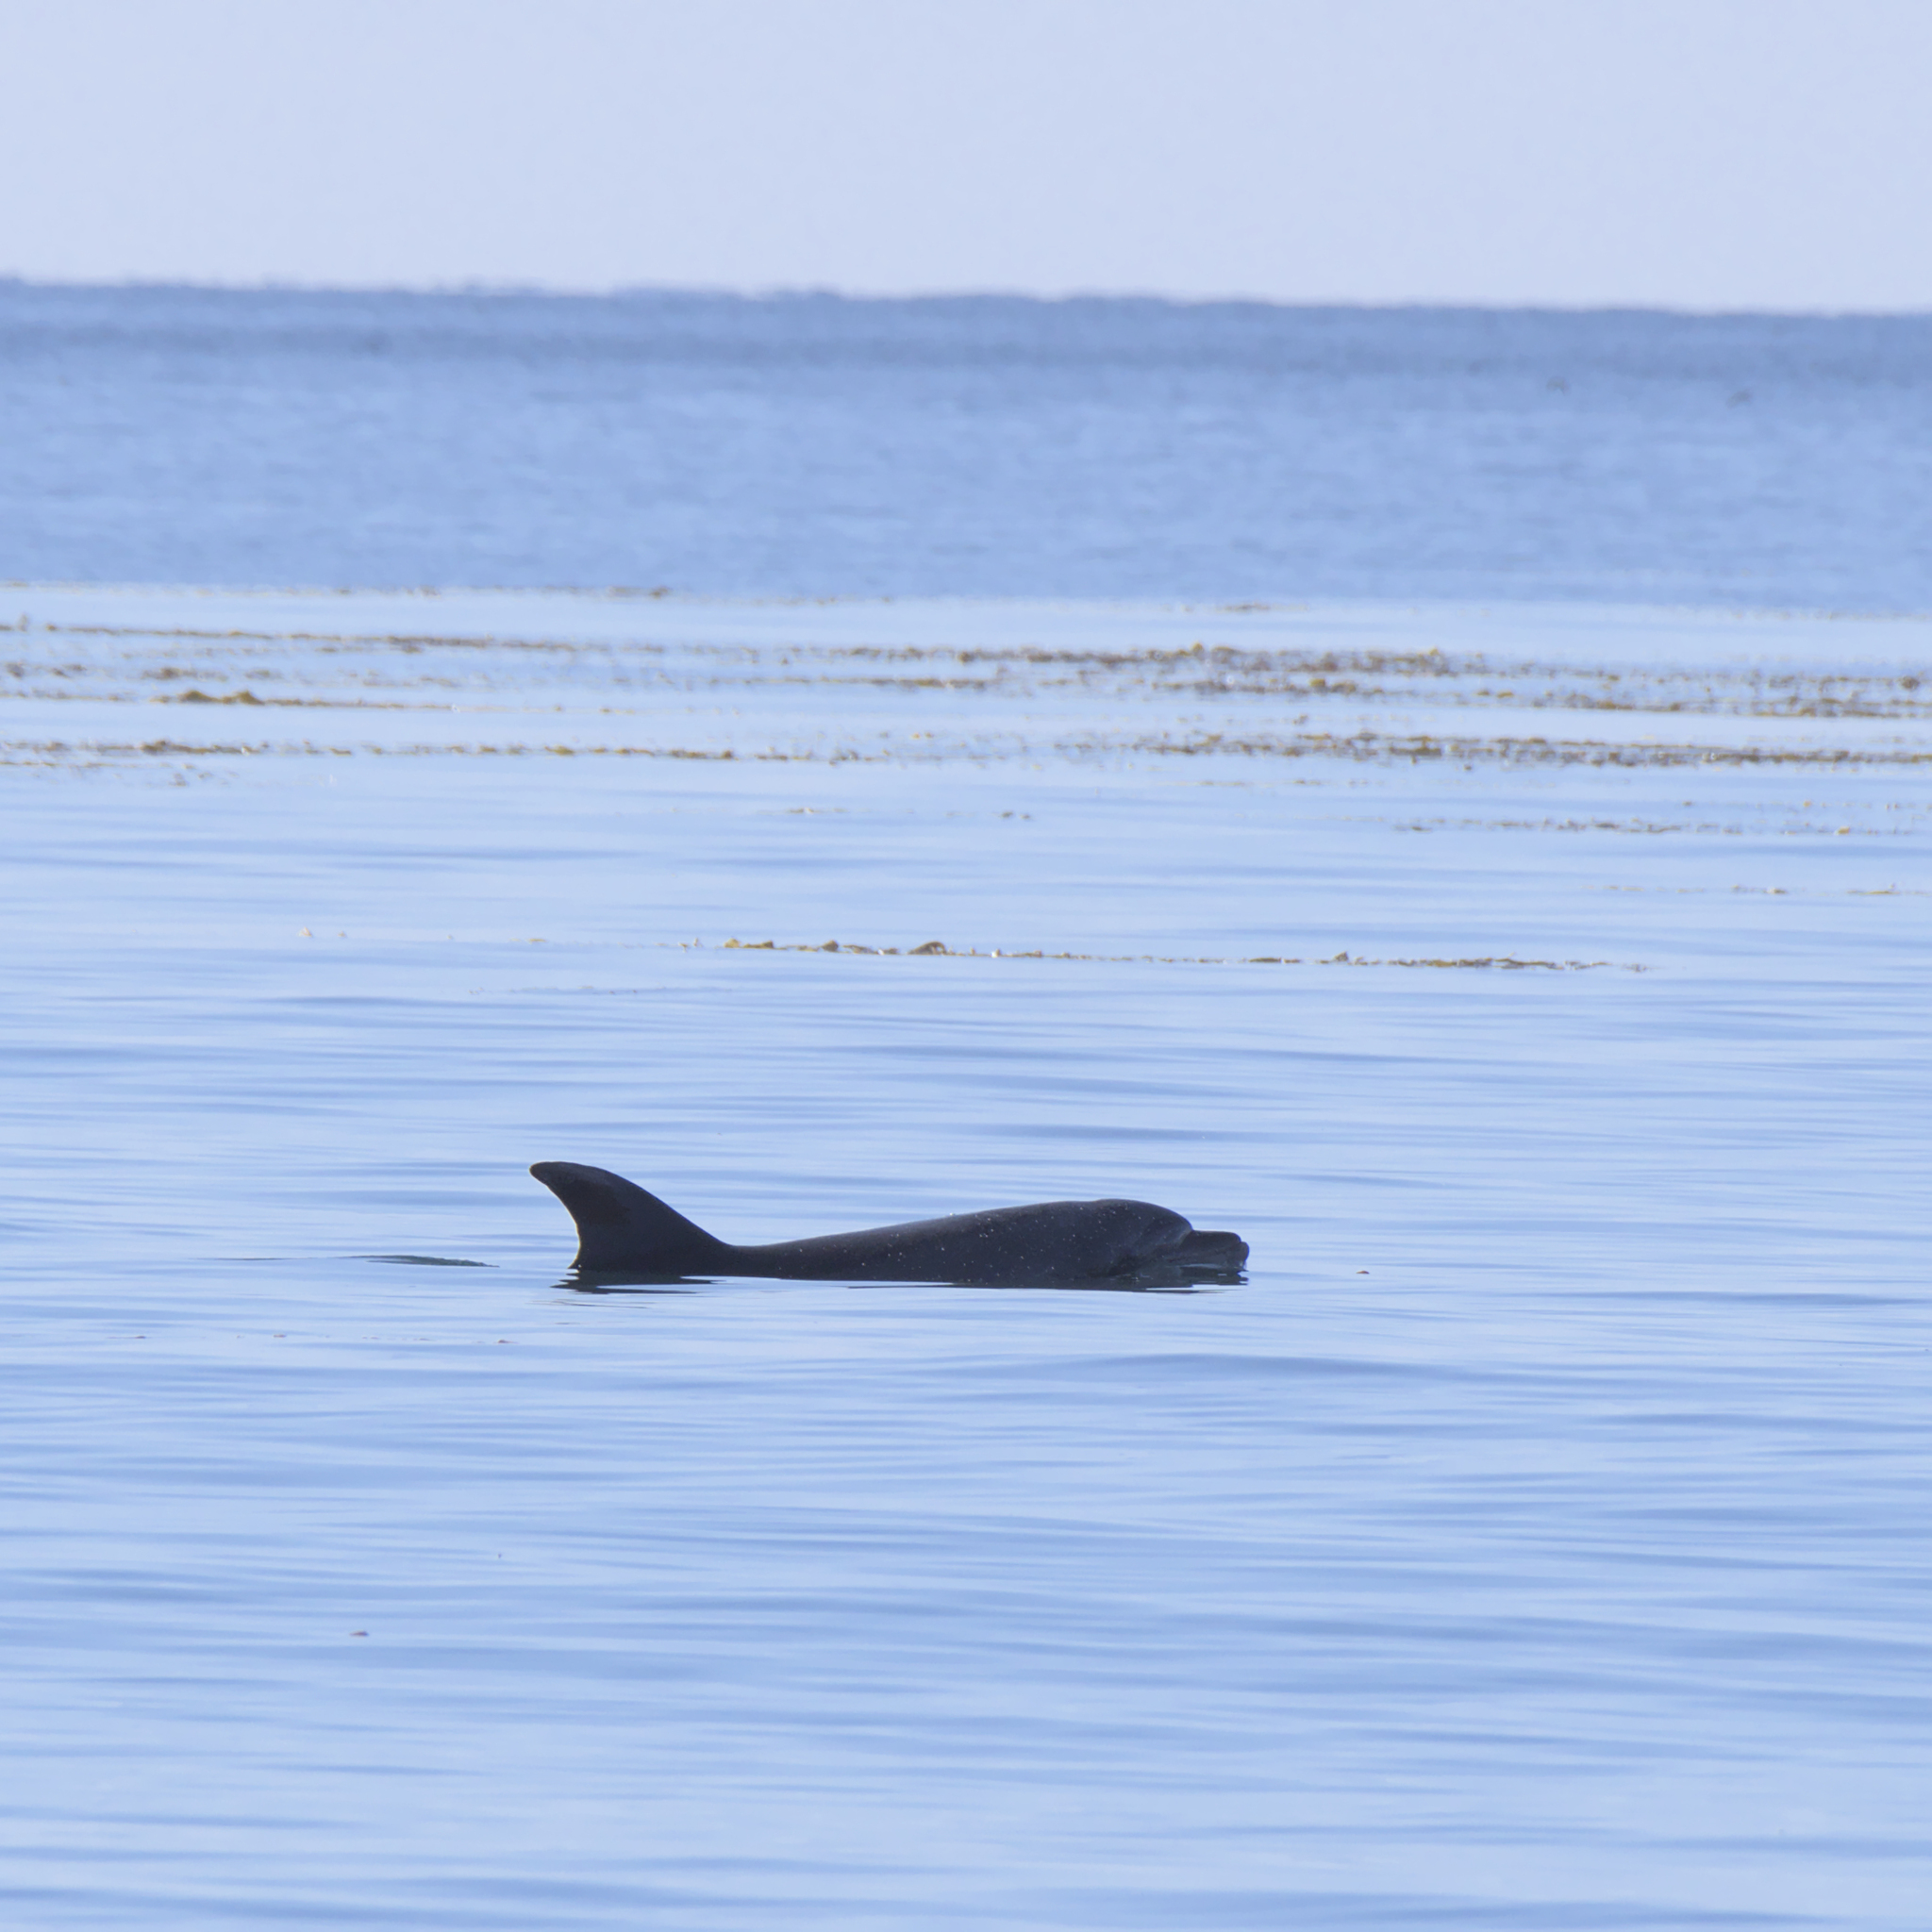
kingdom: Animalia
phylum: Chordata
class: Mammalia
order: Cetacea
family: Delphinidae
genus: Tursiops
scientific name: Tursiops truncatus
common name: Bottlenose dolphin
